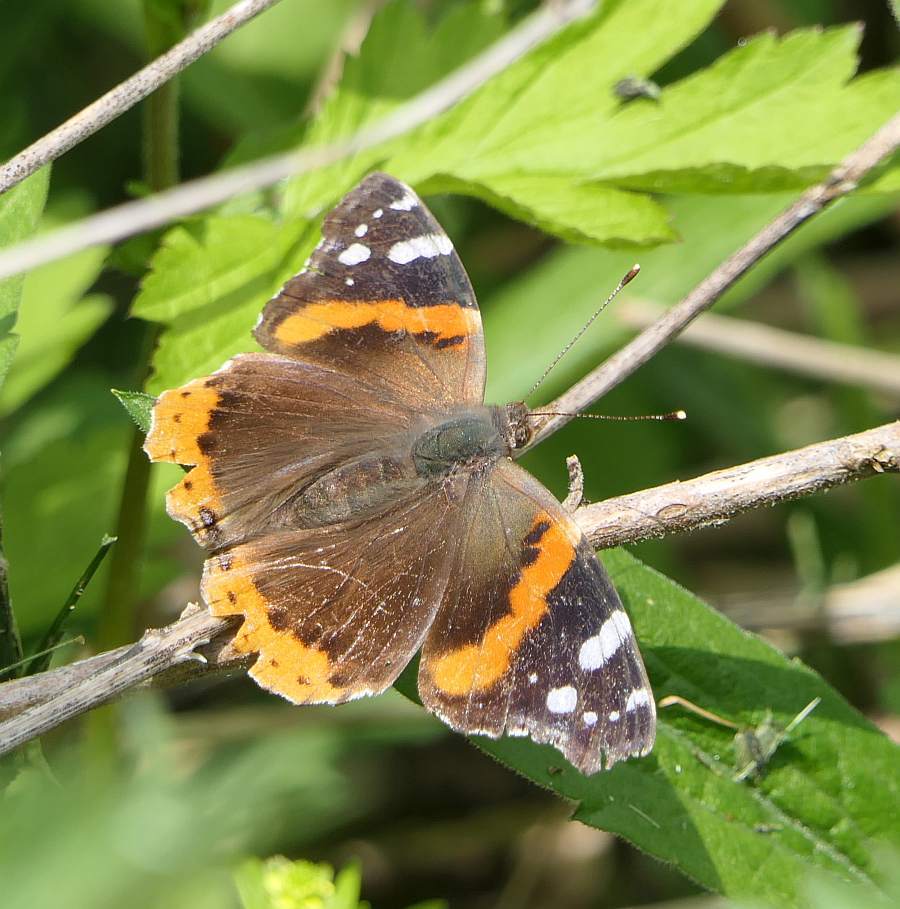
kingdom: Animalia
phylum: Arthropoda
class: Insecta
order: Lepidoptera
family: Nymphalidae
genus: Vanessa
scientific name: Vanessa atalanta
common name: Red admiral
